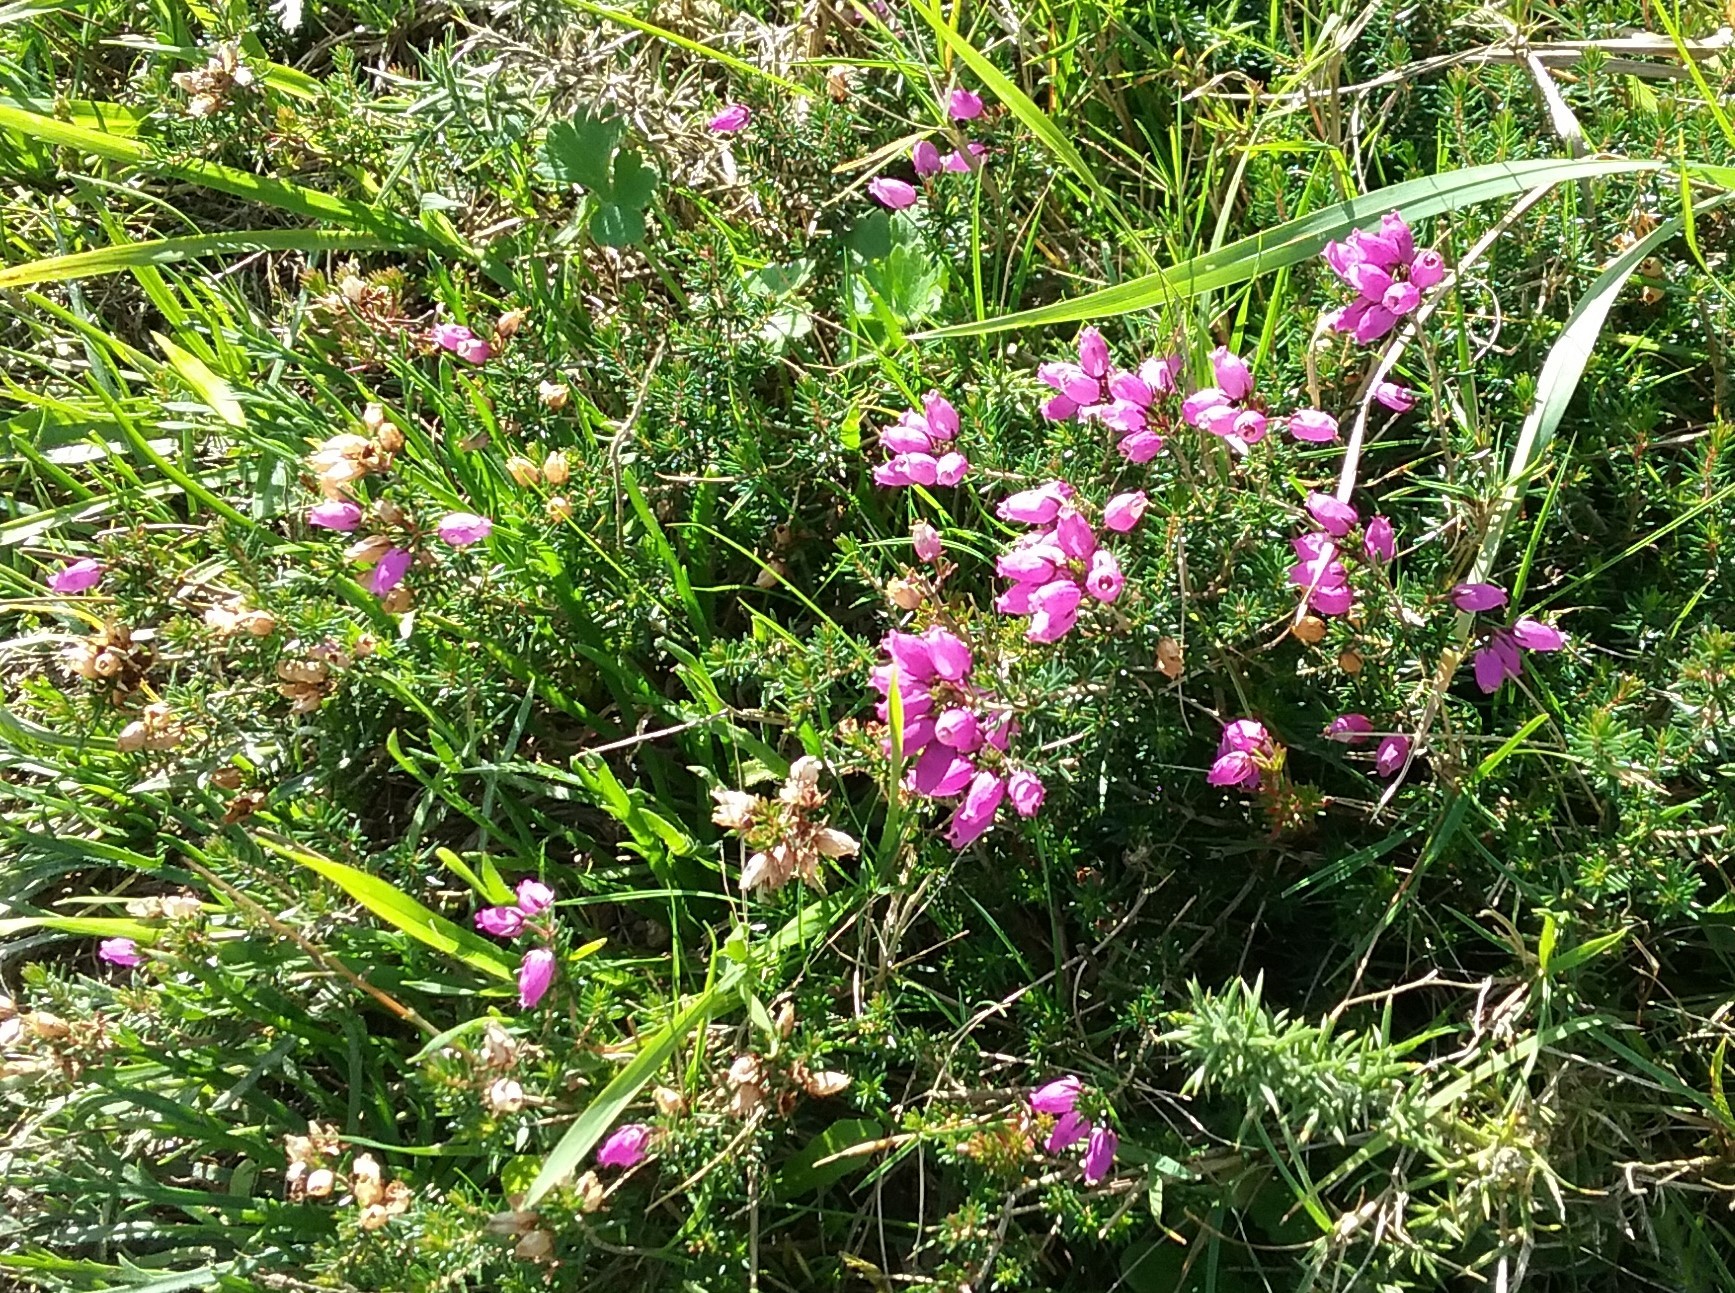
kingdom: Plantae
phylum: Tracheophyta
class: Magnoliopsida
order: Ericales
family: Ericaceae
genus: Erica
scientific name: Erica cinerea
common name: Bell heather
